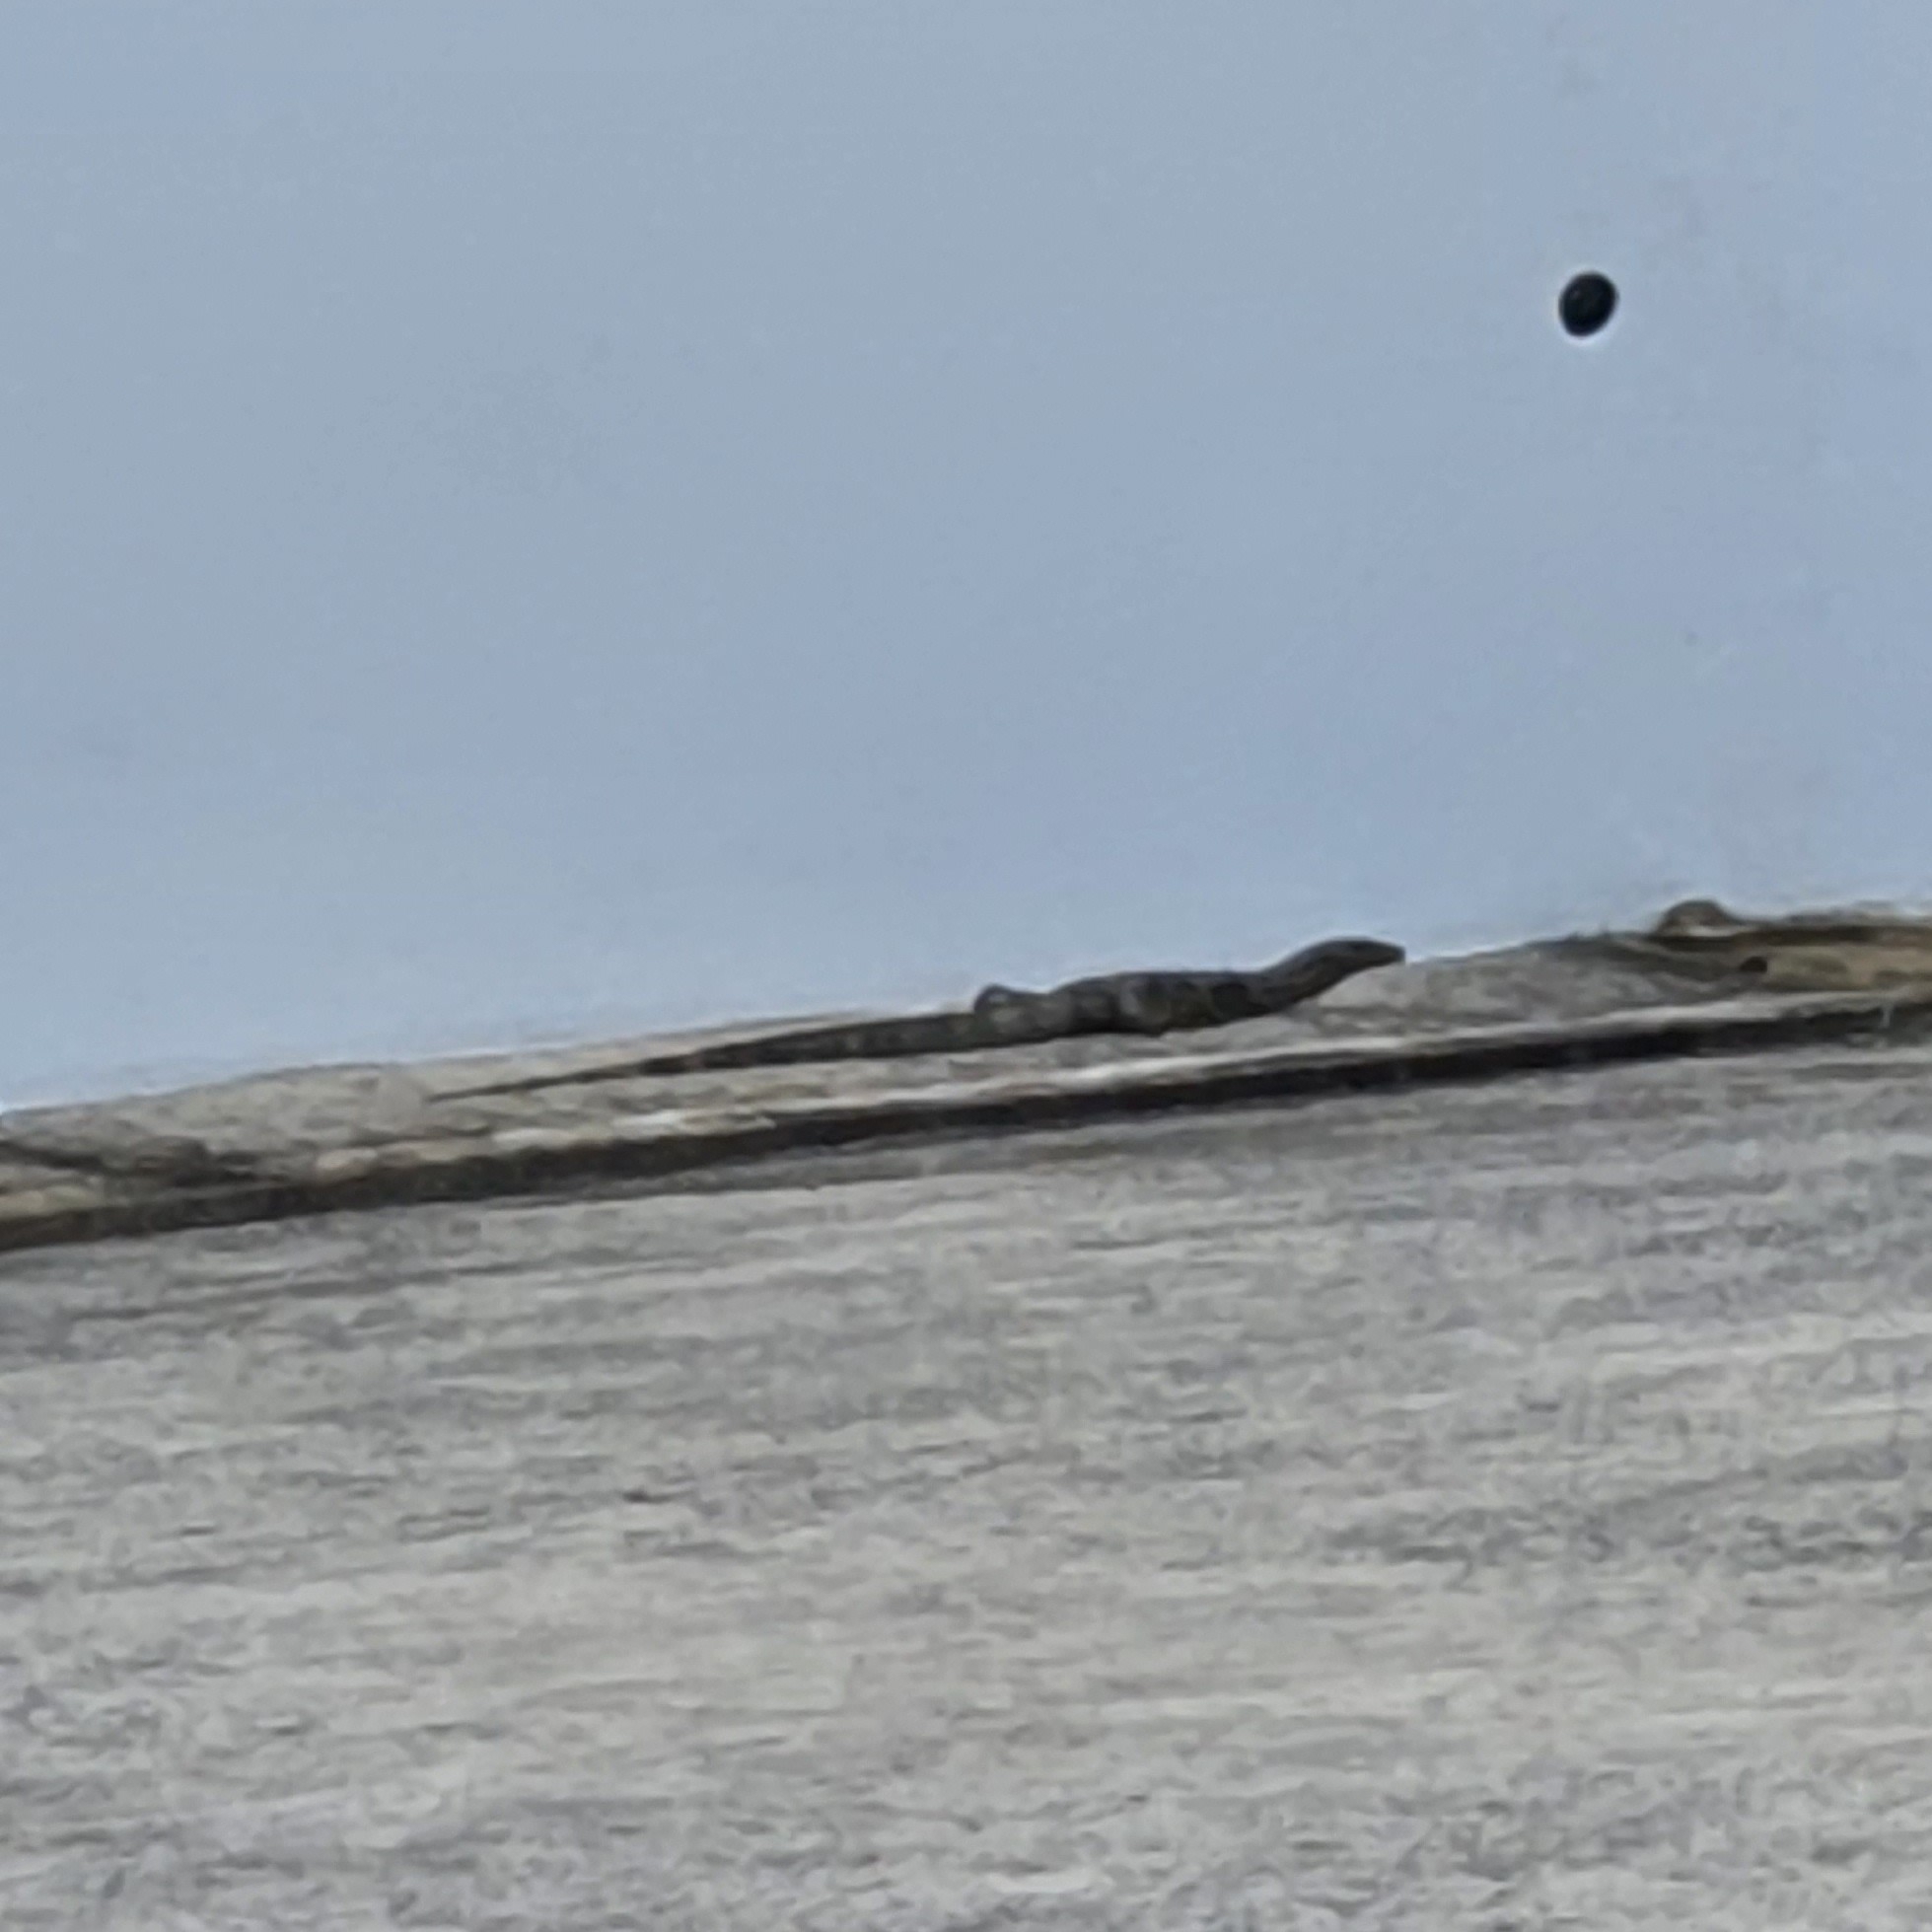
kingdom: Animalia
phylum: Chordata
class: Squamata
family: Varanidae
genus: Varanus
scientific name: Varanus salvator
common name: Common water monitor
